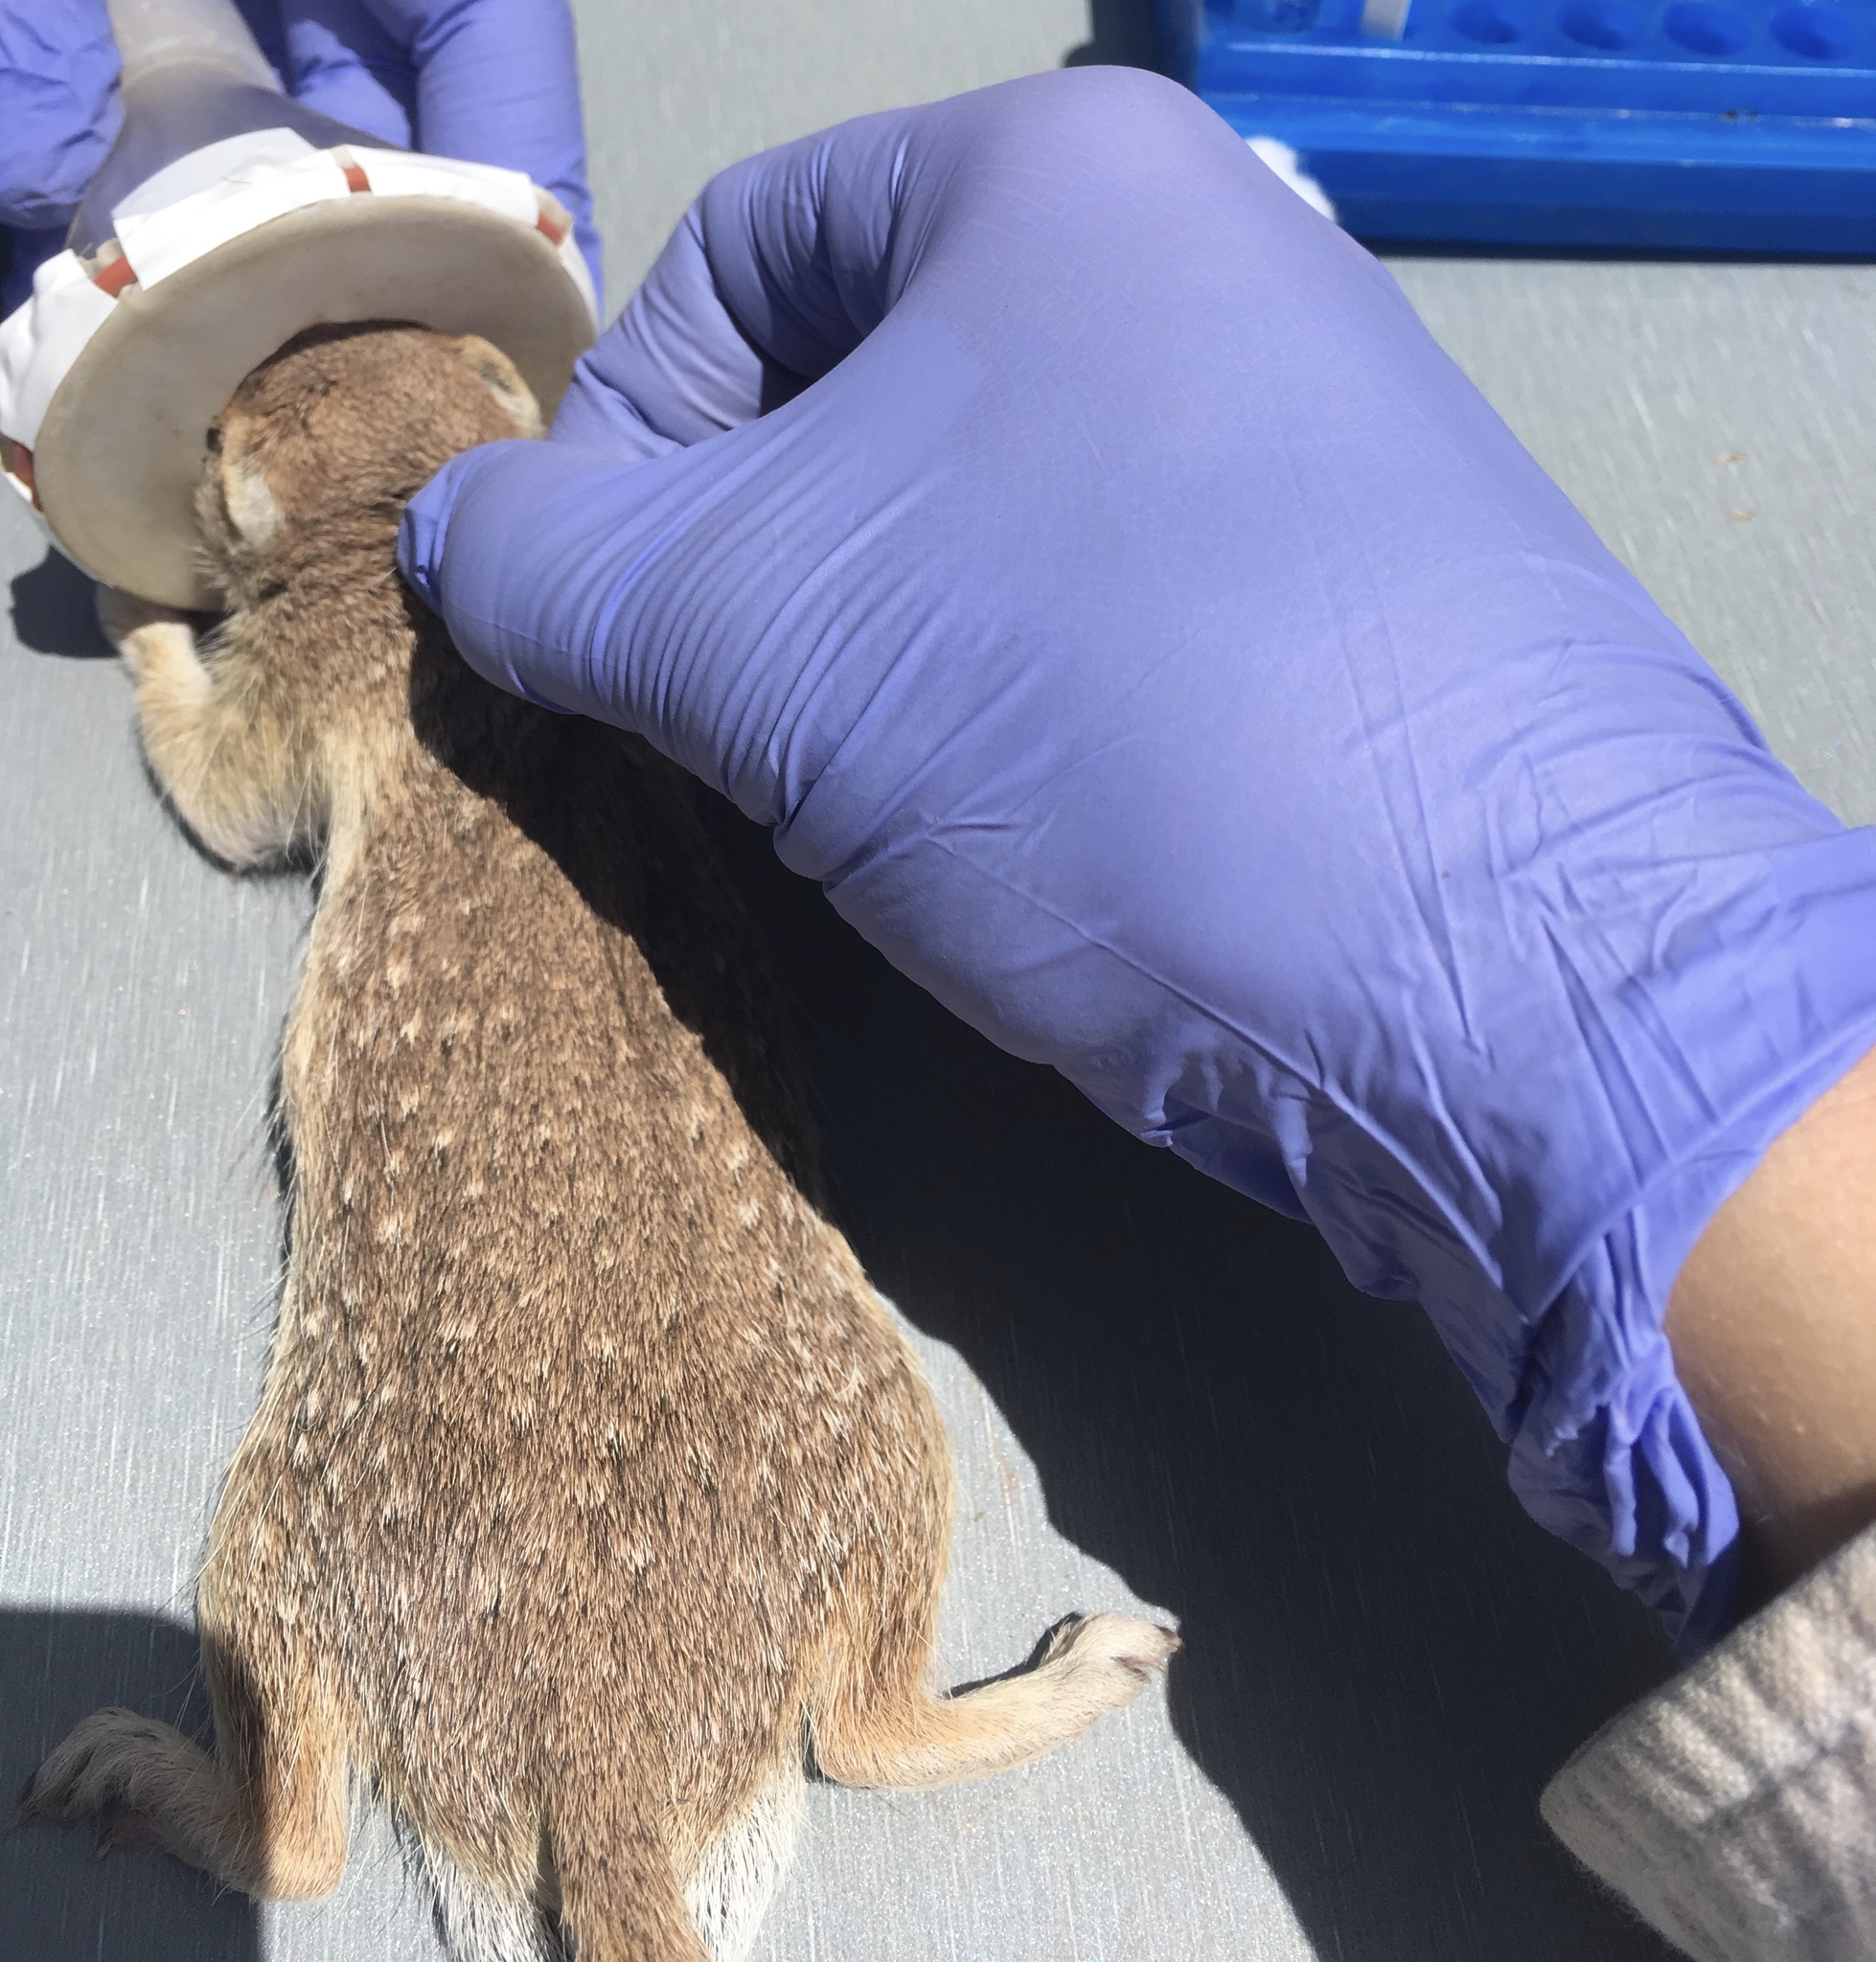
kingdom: Animalia
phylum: Chordata
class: Mammalia
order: Rodentia
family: Sciuridae
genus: Xerospermophilus
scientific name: Xerospermophilus spilosoma
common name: Spotted ground squirrel
